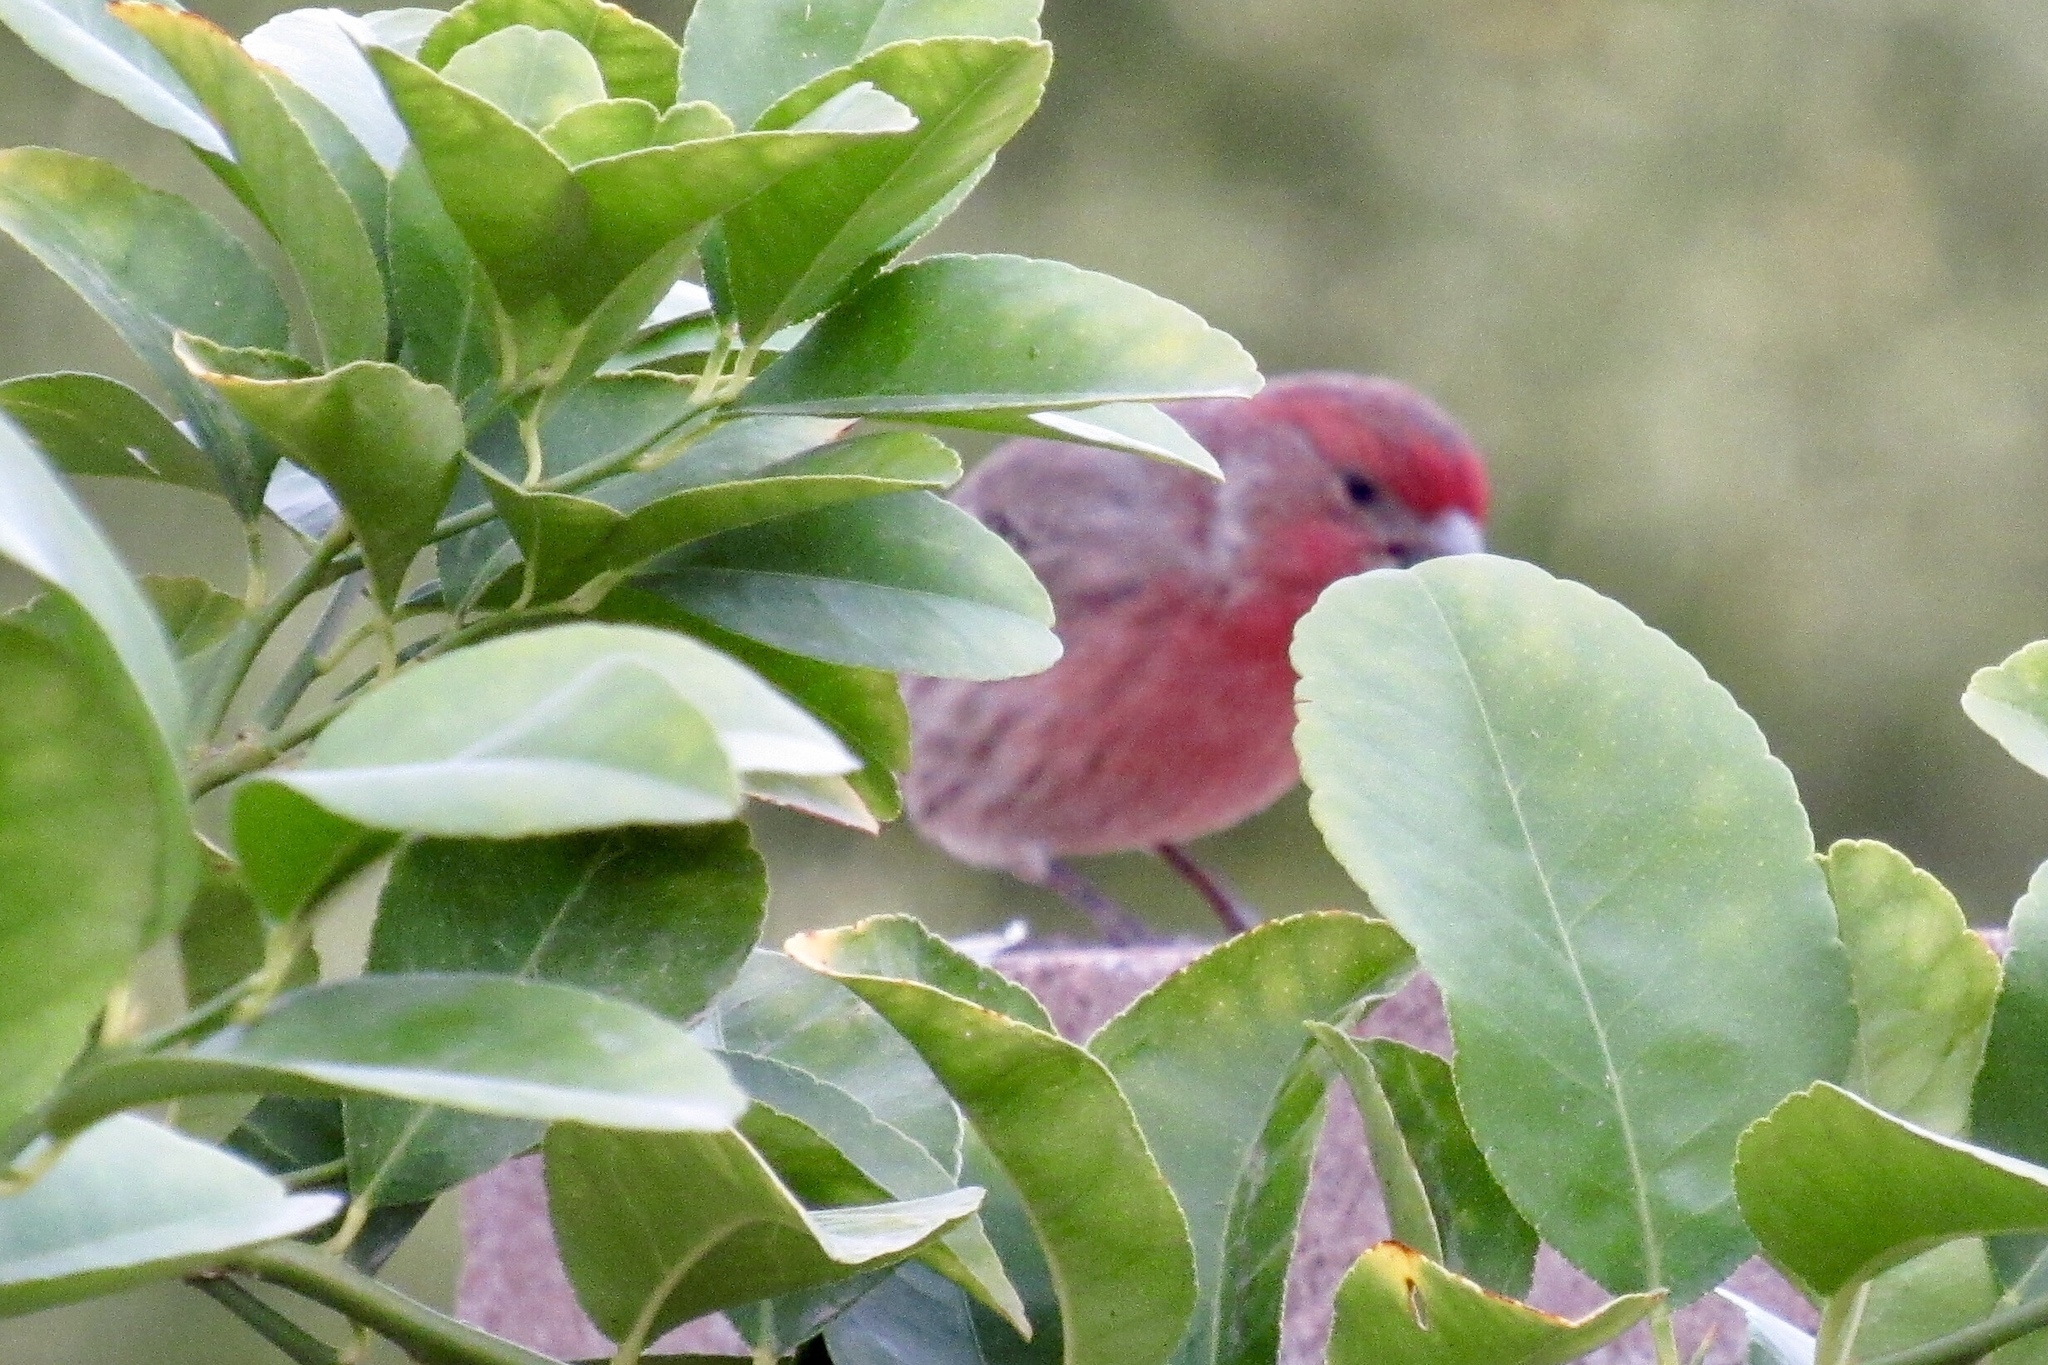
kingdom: Animalia
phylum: Chordata
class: Aves
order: Passeriformes
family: Fringillidae
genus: Haemorhous
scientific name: Haemorhous mexicanus
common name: House finch
